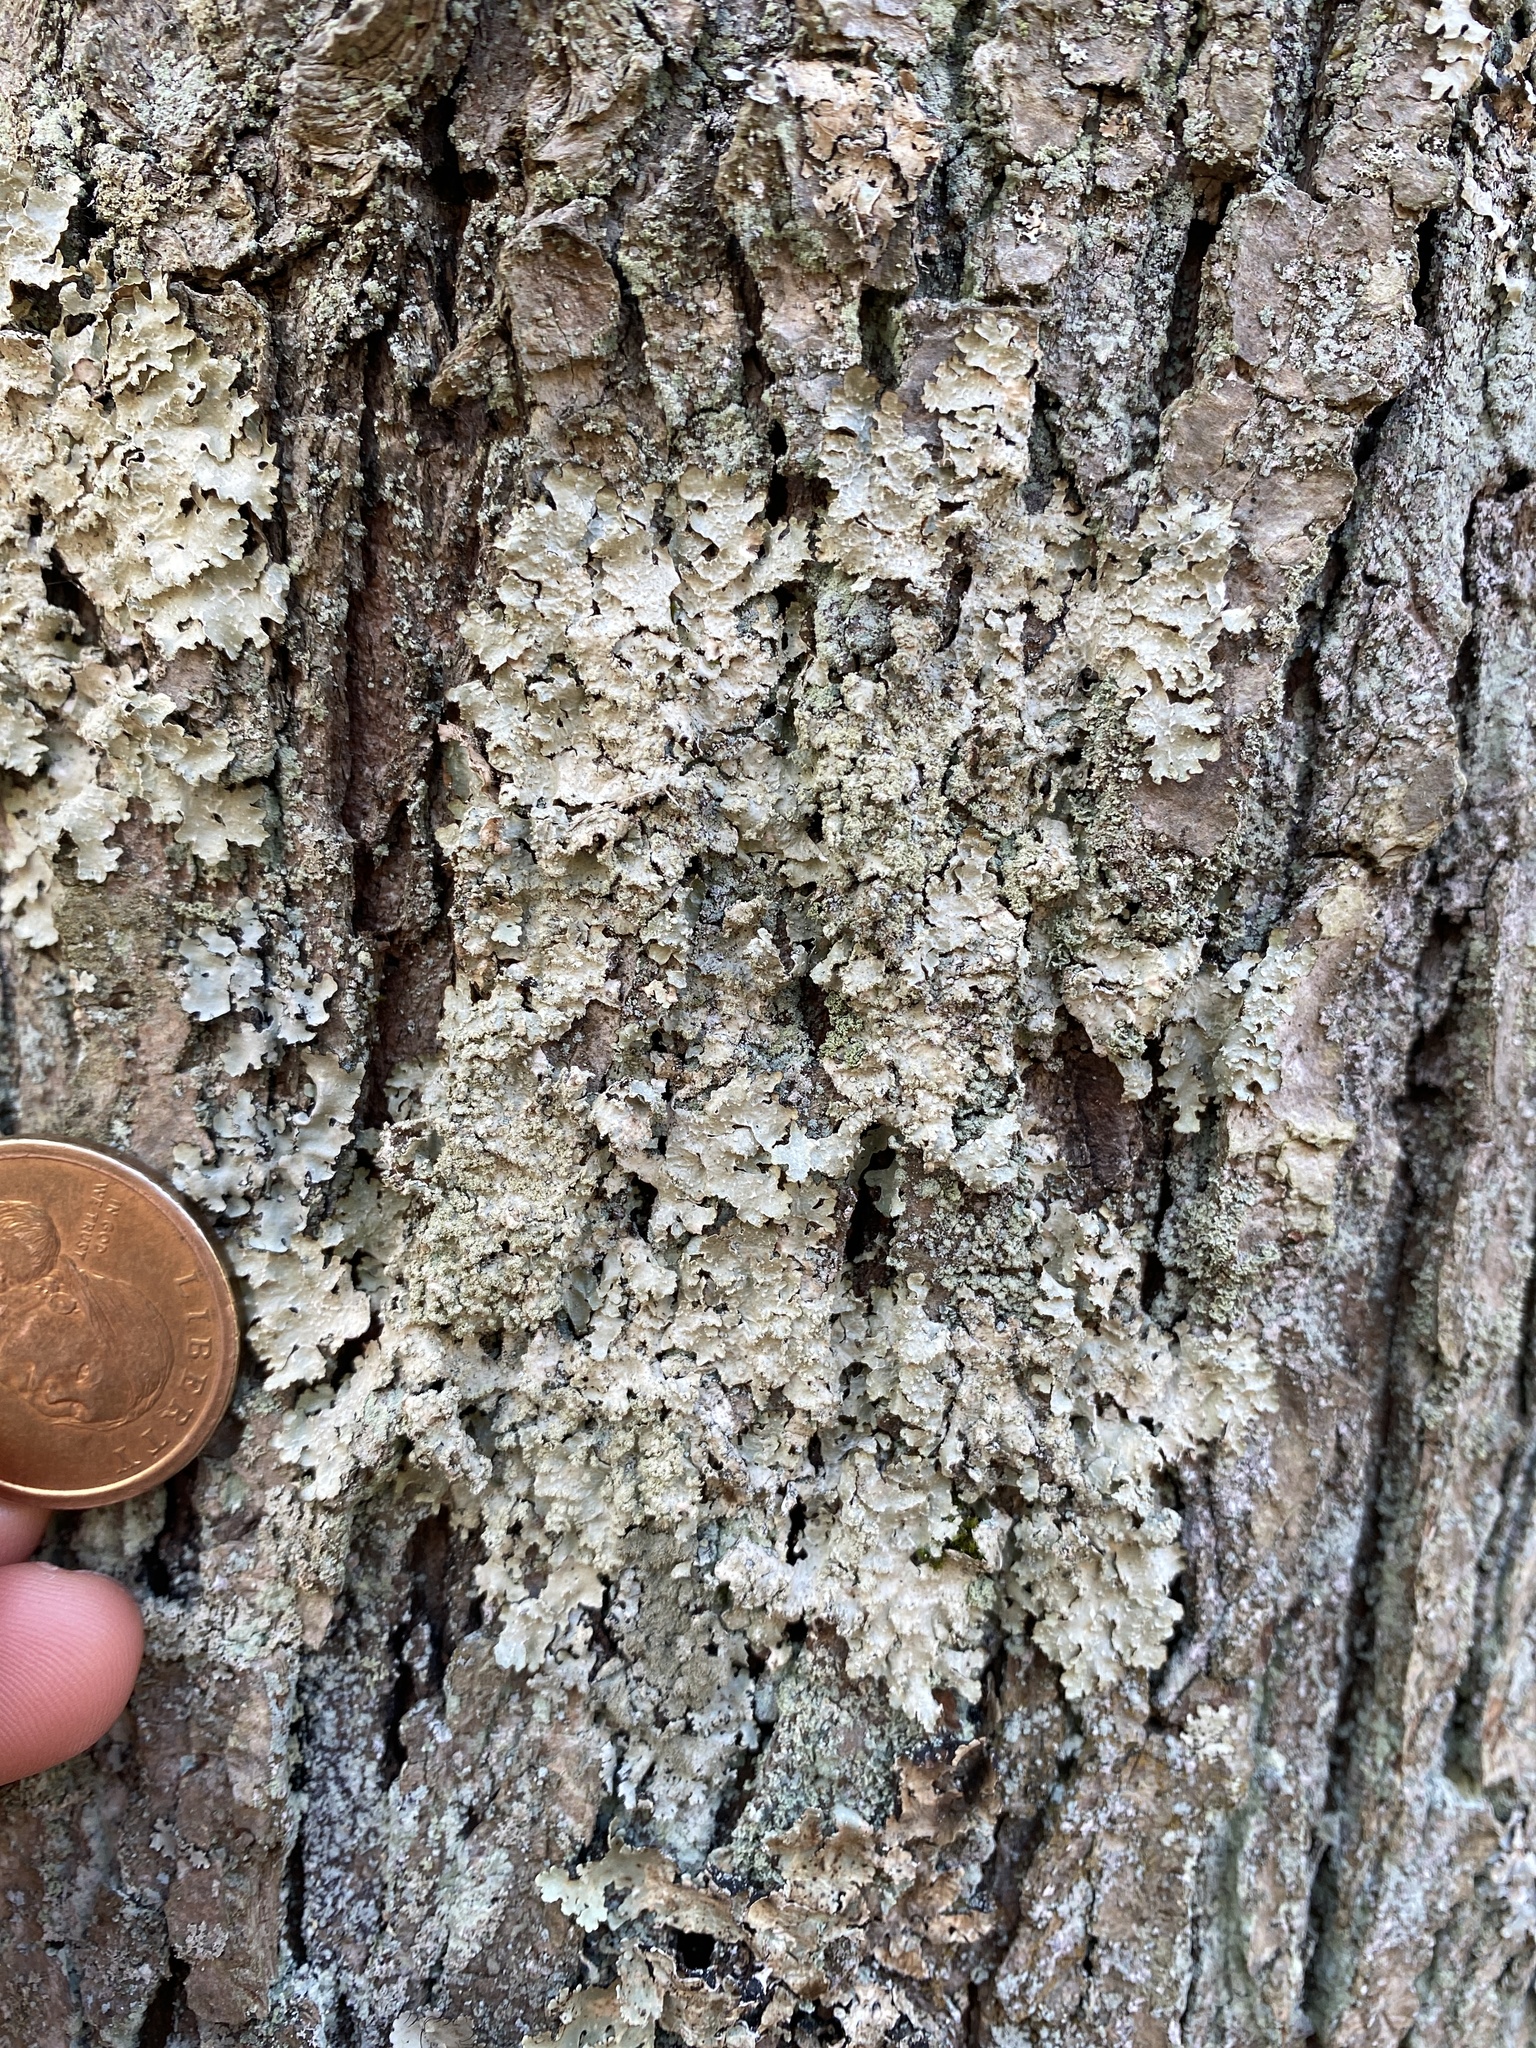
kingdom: Fungi
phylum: Ascomycota
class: Lecanoromycetes
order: Lecanorales
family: Parmeliaceae
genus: Punctelia
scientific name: Punctelia caseana
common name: Moondust speckled lichen
